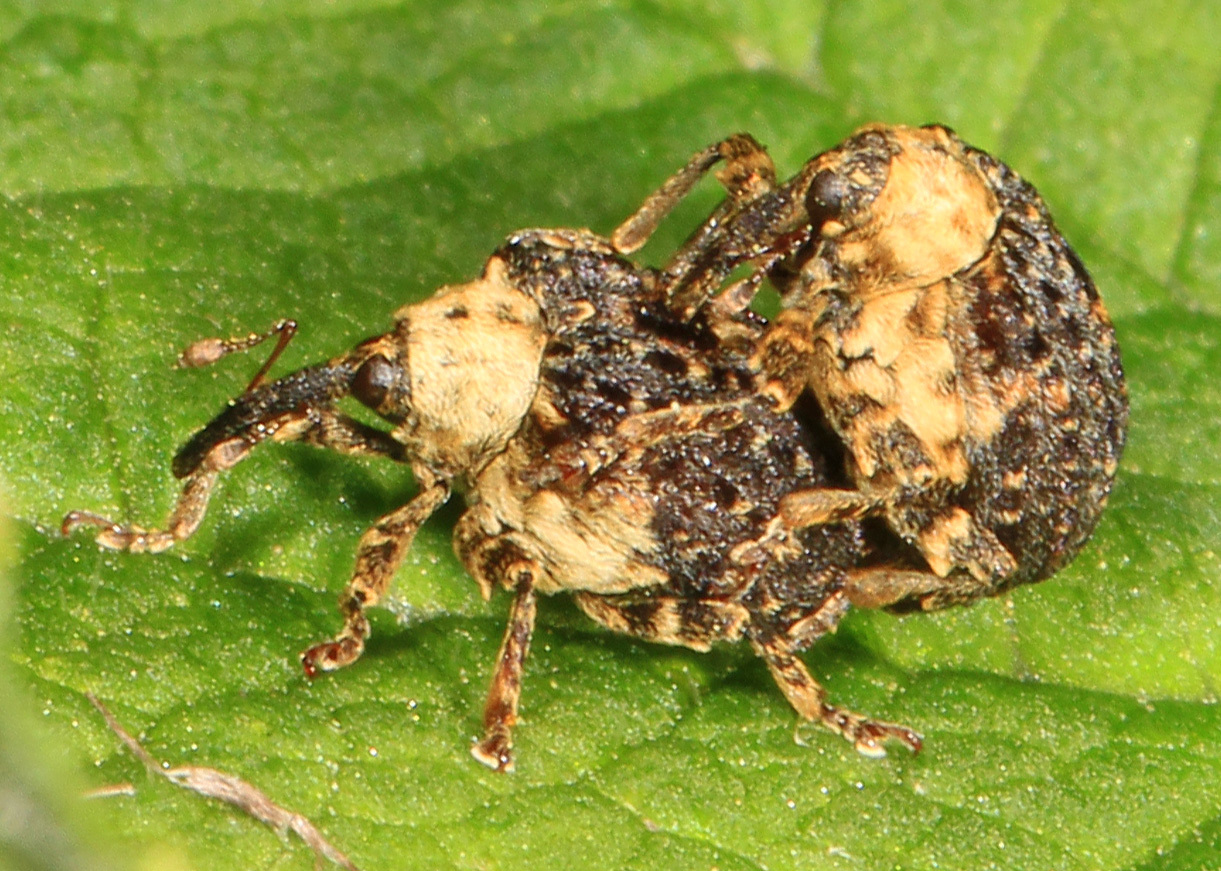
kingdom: Animalia
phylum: Arthropoda
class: Insecta
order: Coleoptera
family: Curculionidae
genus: Cionus
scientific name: Cionus scrophulariae
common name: Common figwort weevil
